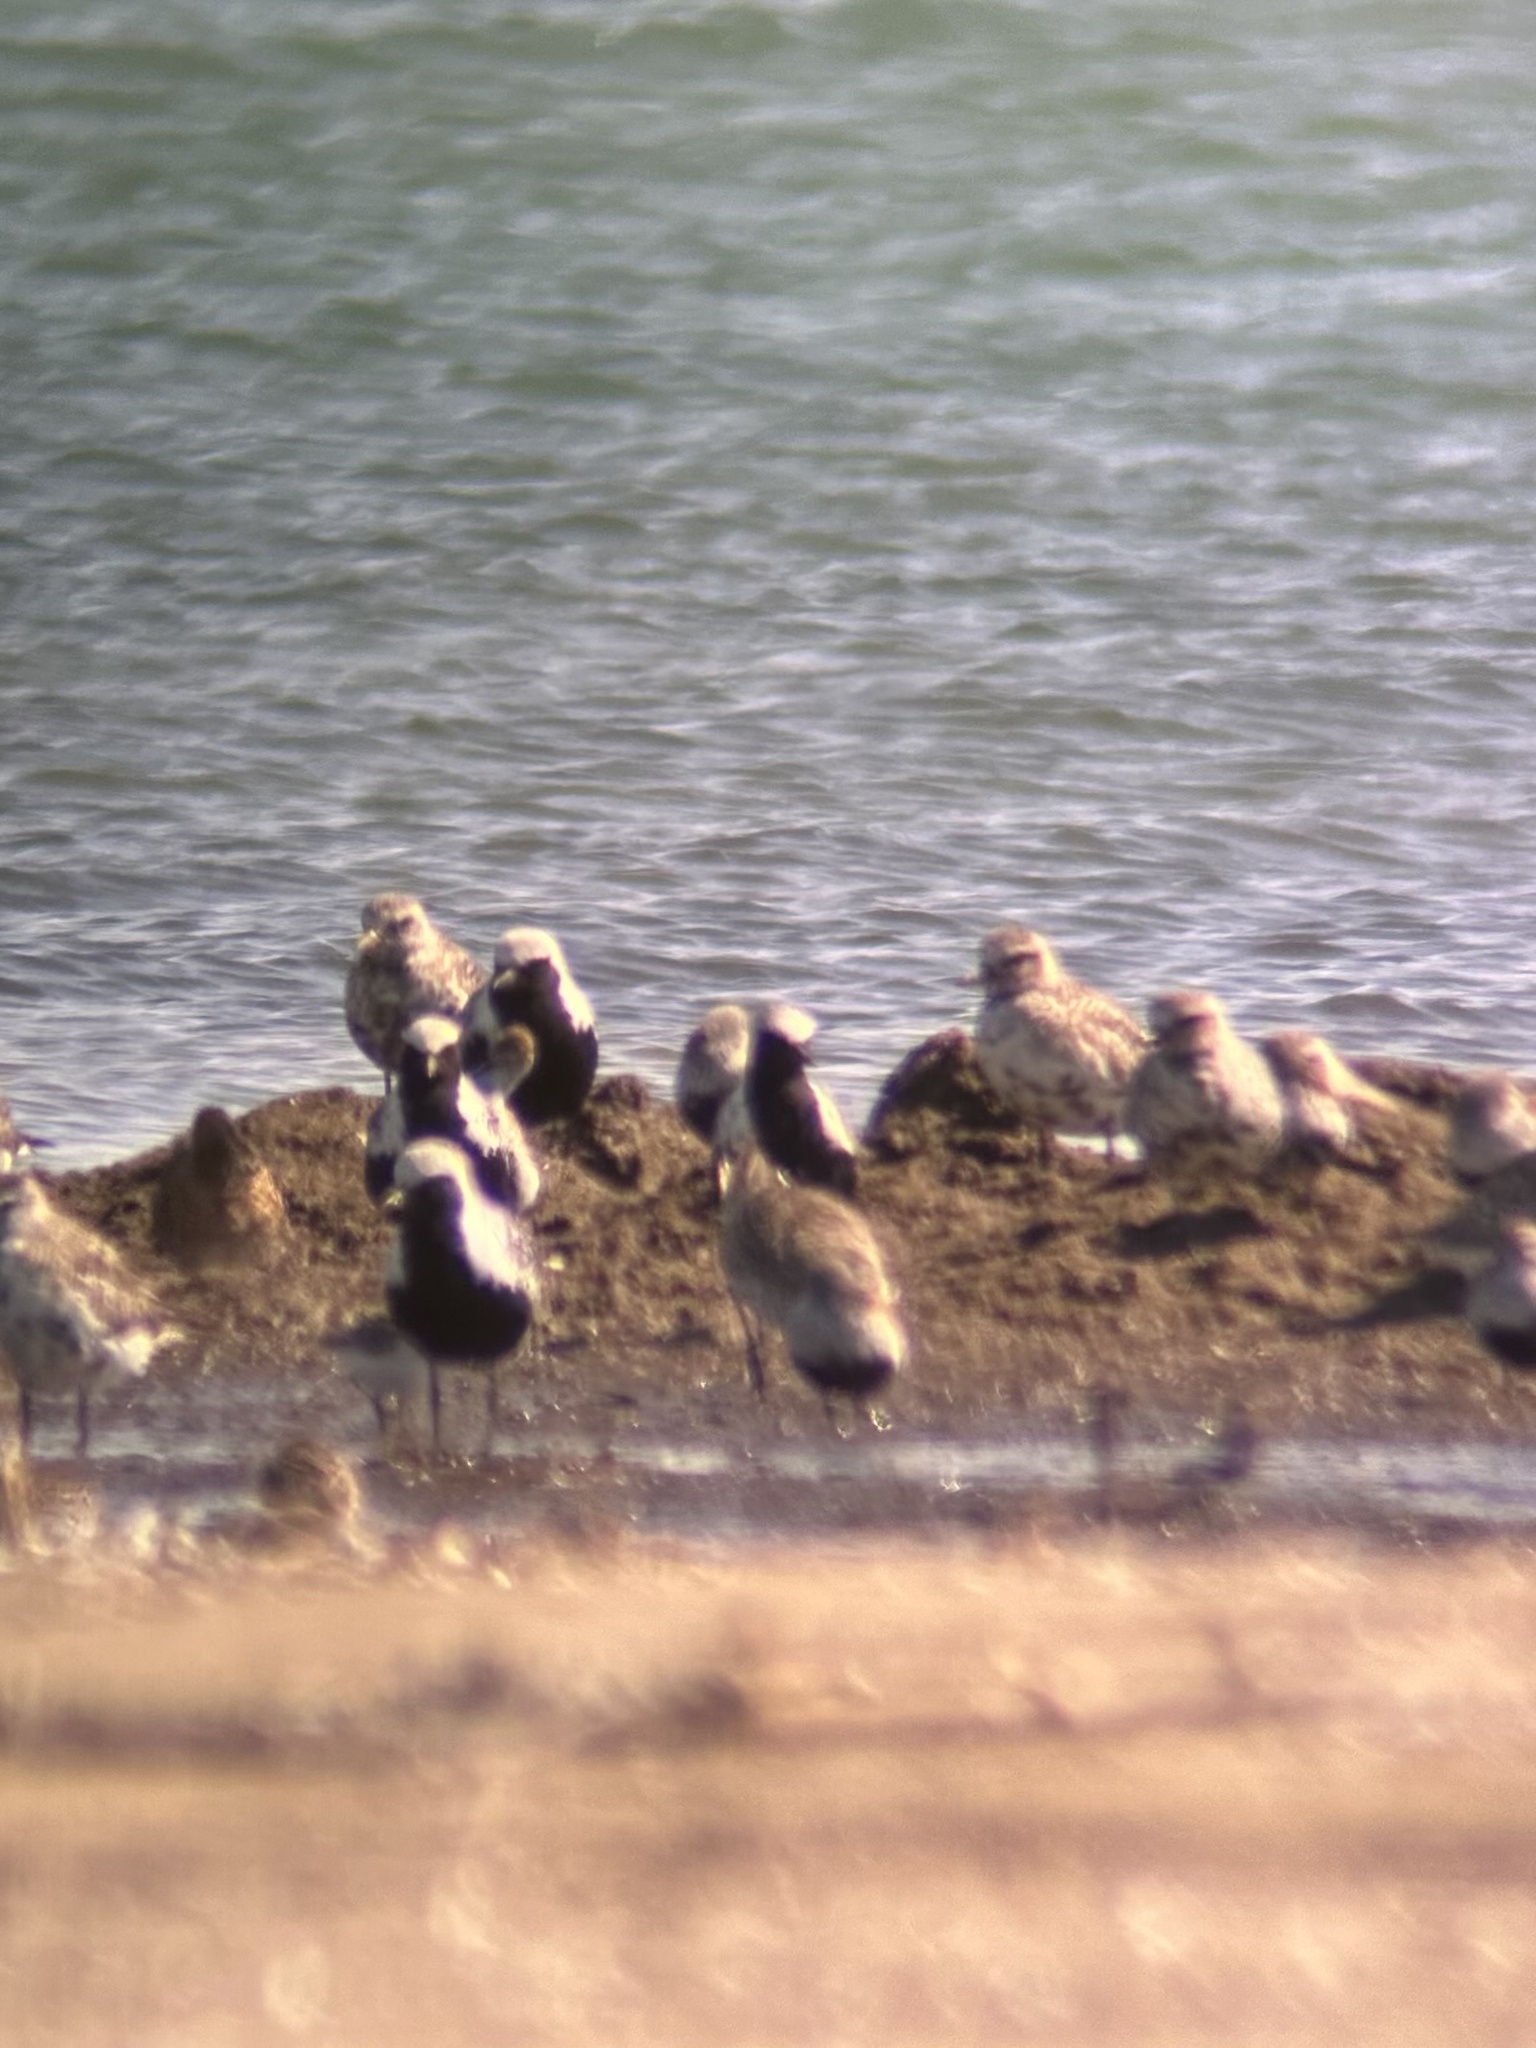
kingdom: Animalia
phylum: Chordata
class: Aves
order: Charadriiformes
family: Charadriidae
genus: Pluvialis
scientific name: Pluvialis squatarola
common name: Grey plover
